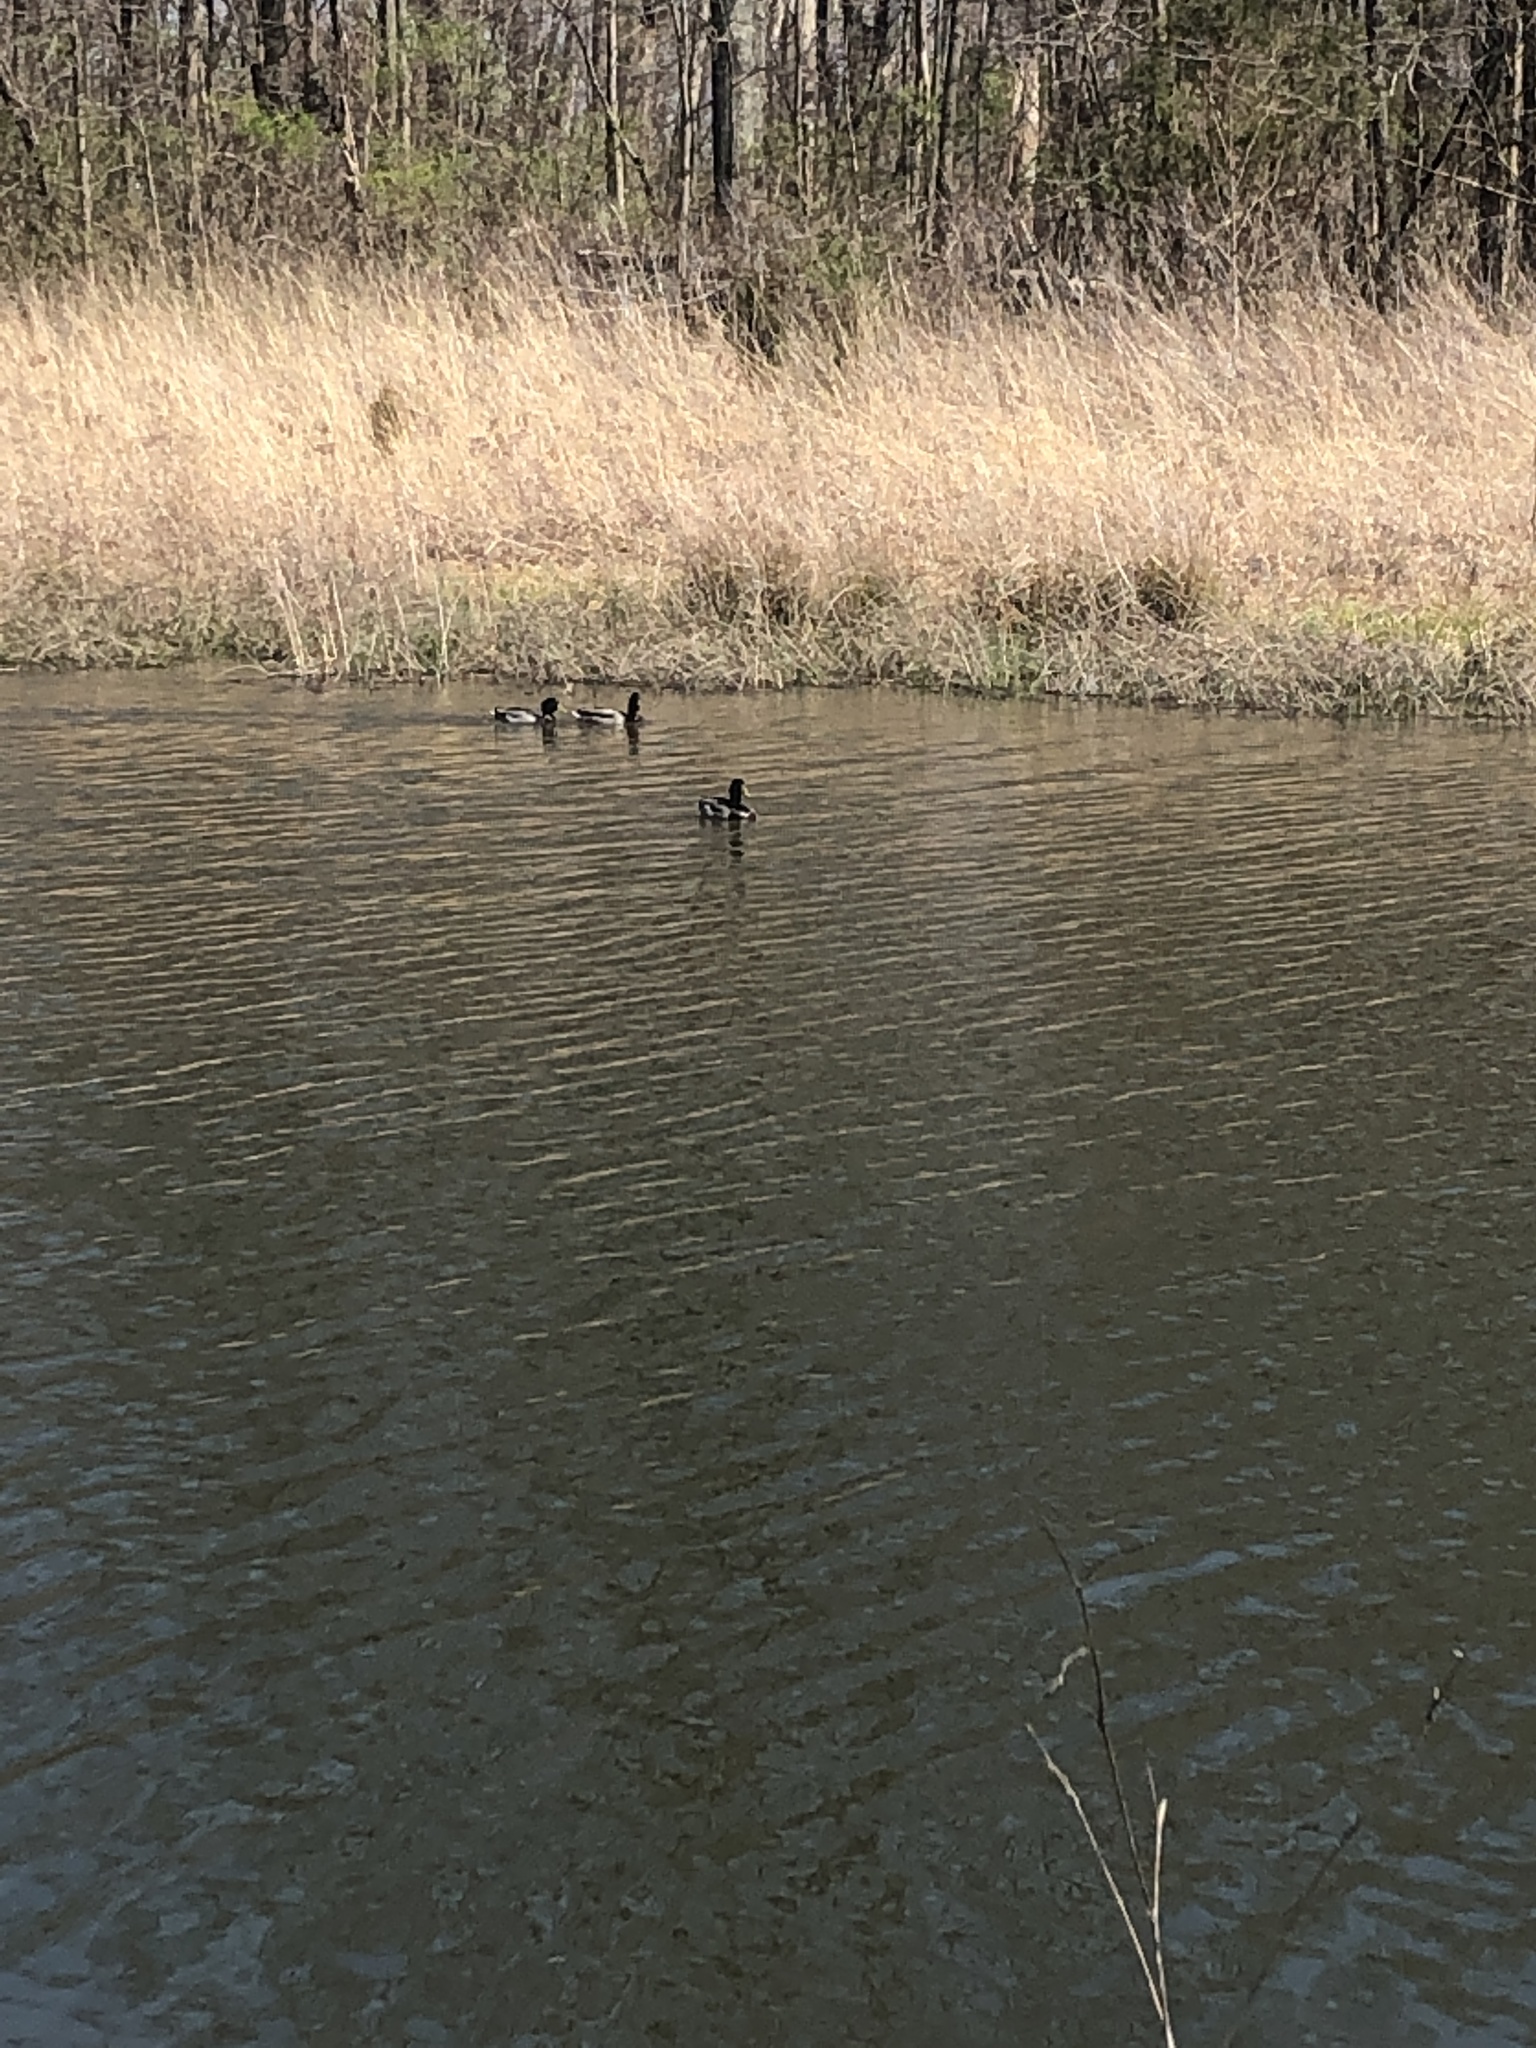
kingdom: Animalia
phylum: Chordata
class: Aves
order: Anseriformes
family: Anatidae
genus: Anas
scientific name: Anas platyrhynchos
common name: Mallard
